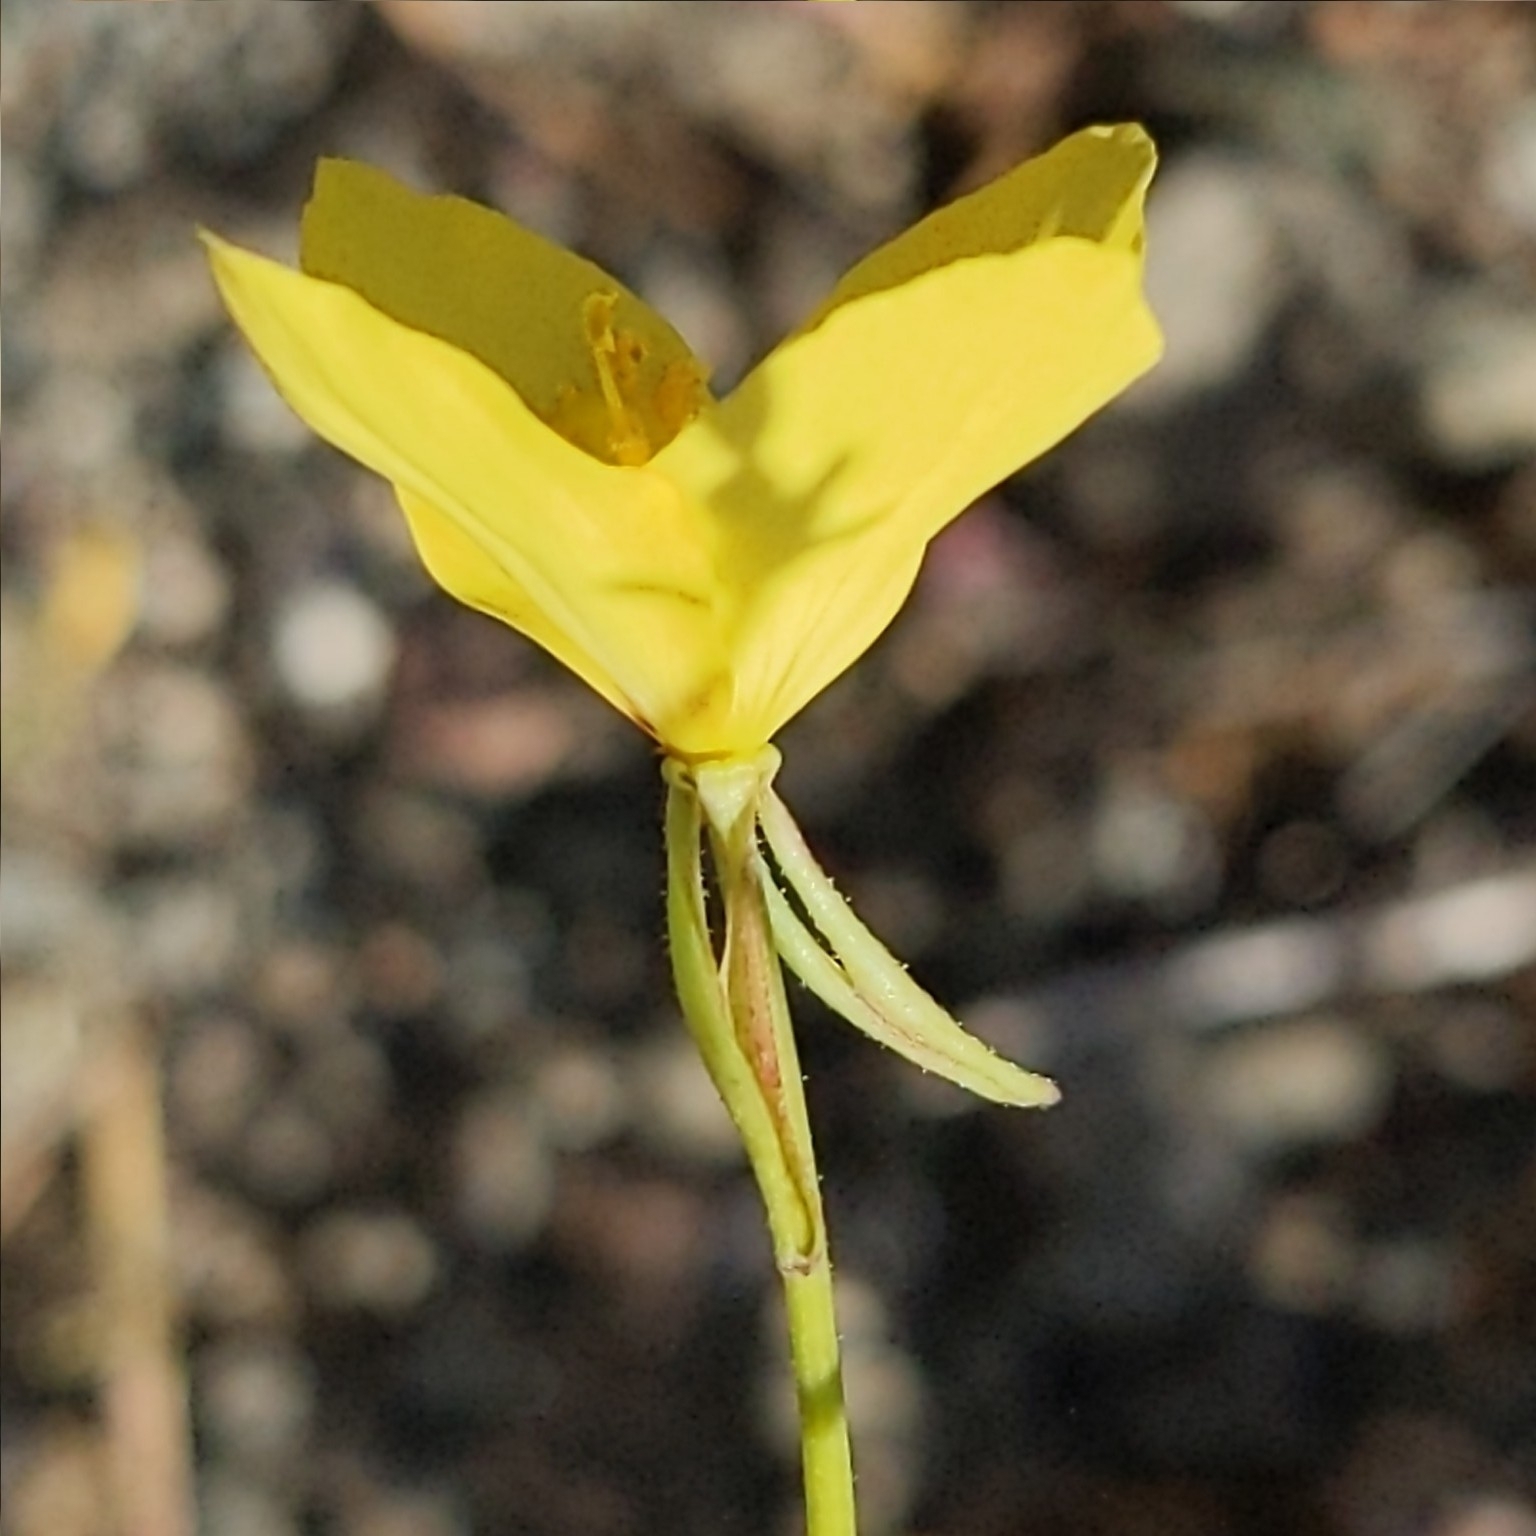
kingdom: Plantae
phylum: Tracheophyta
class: Magnoliopsida
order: Myrtales
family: Onagraceae
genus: Eulobus
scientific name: Eulobus californicus
